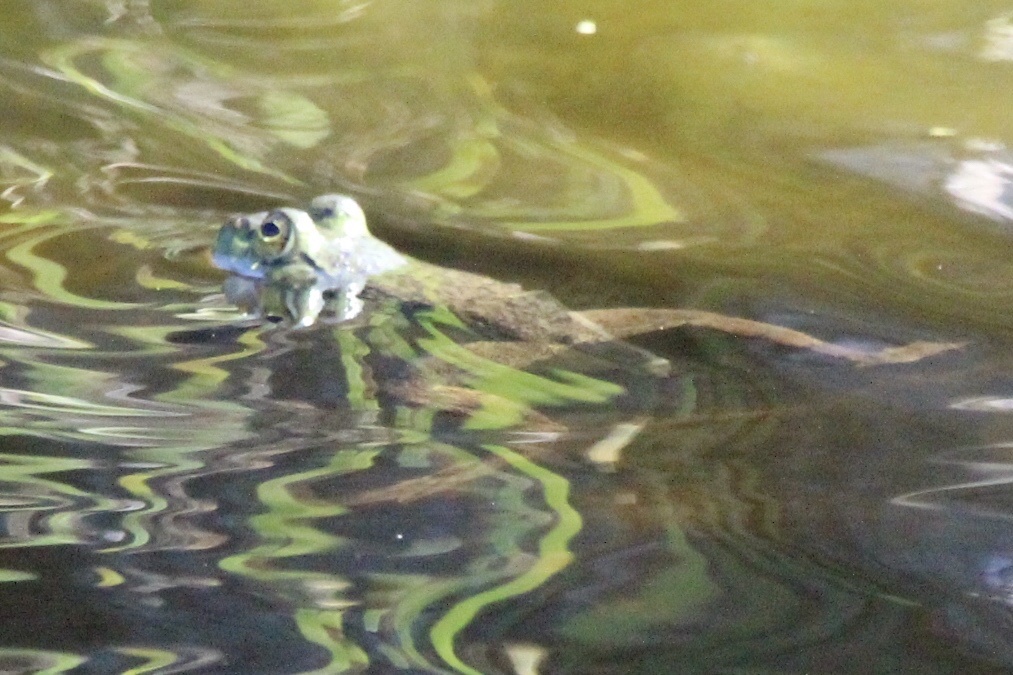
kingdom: Animalia
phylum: Chordata
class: Amphibia
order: Anura
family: Ranidae
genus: Lithobates
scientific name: Lithobates catesbeianus
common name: American bullfrog
